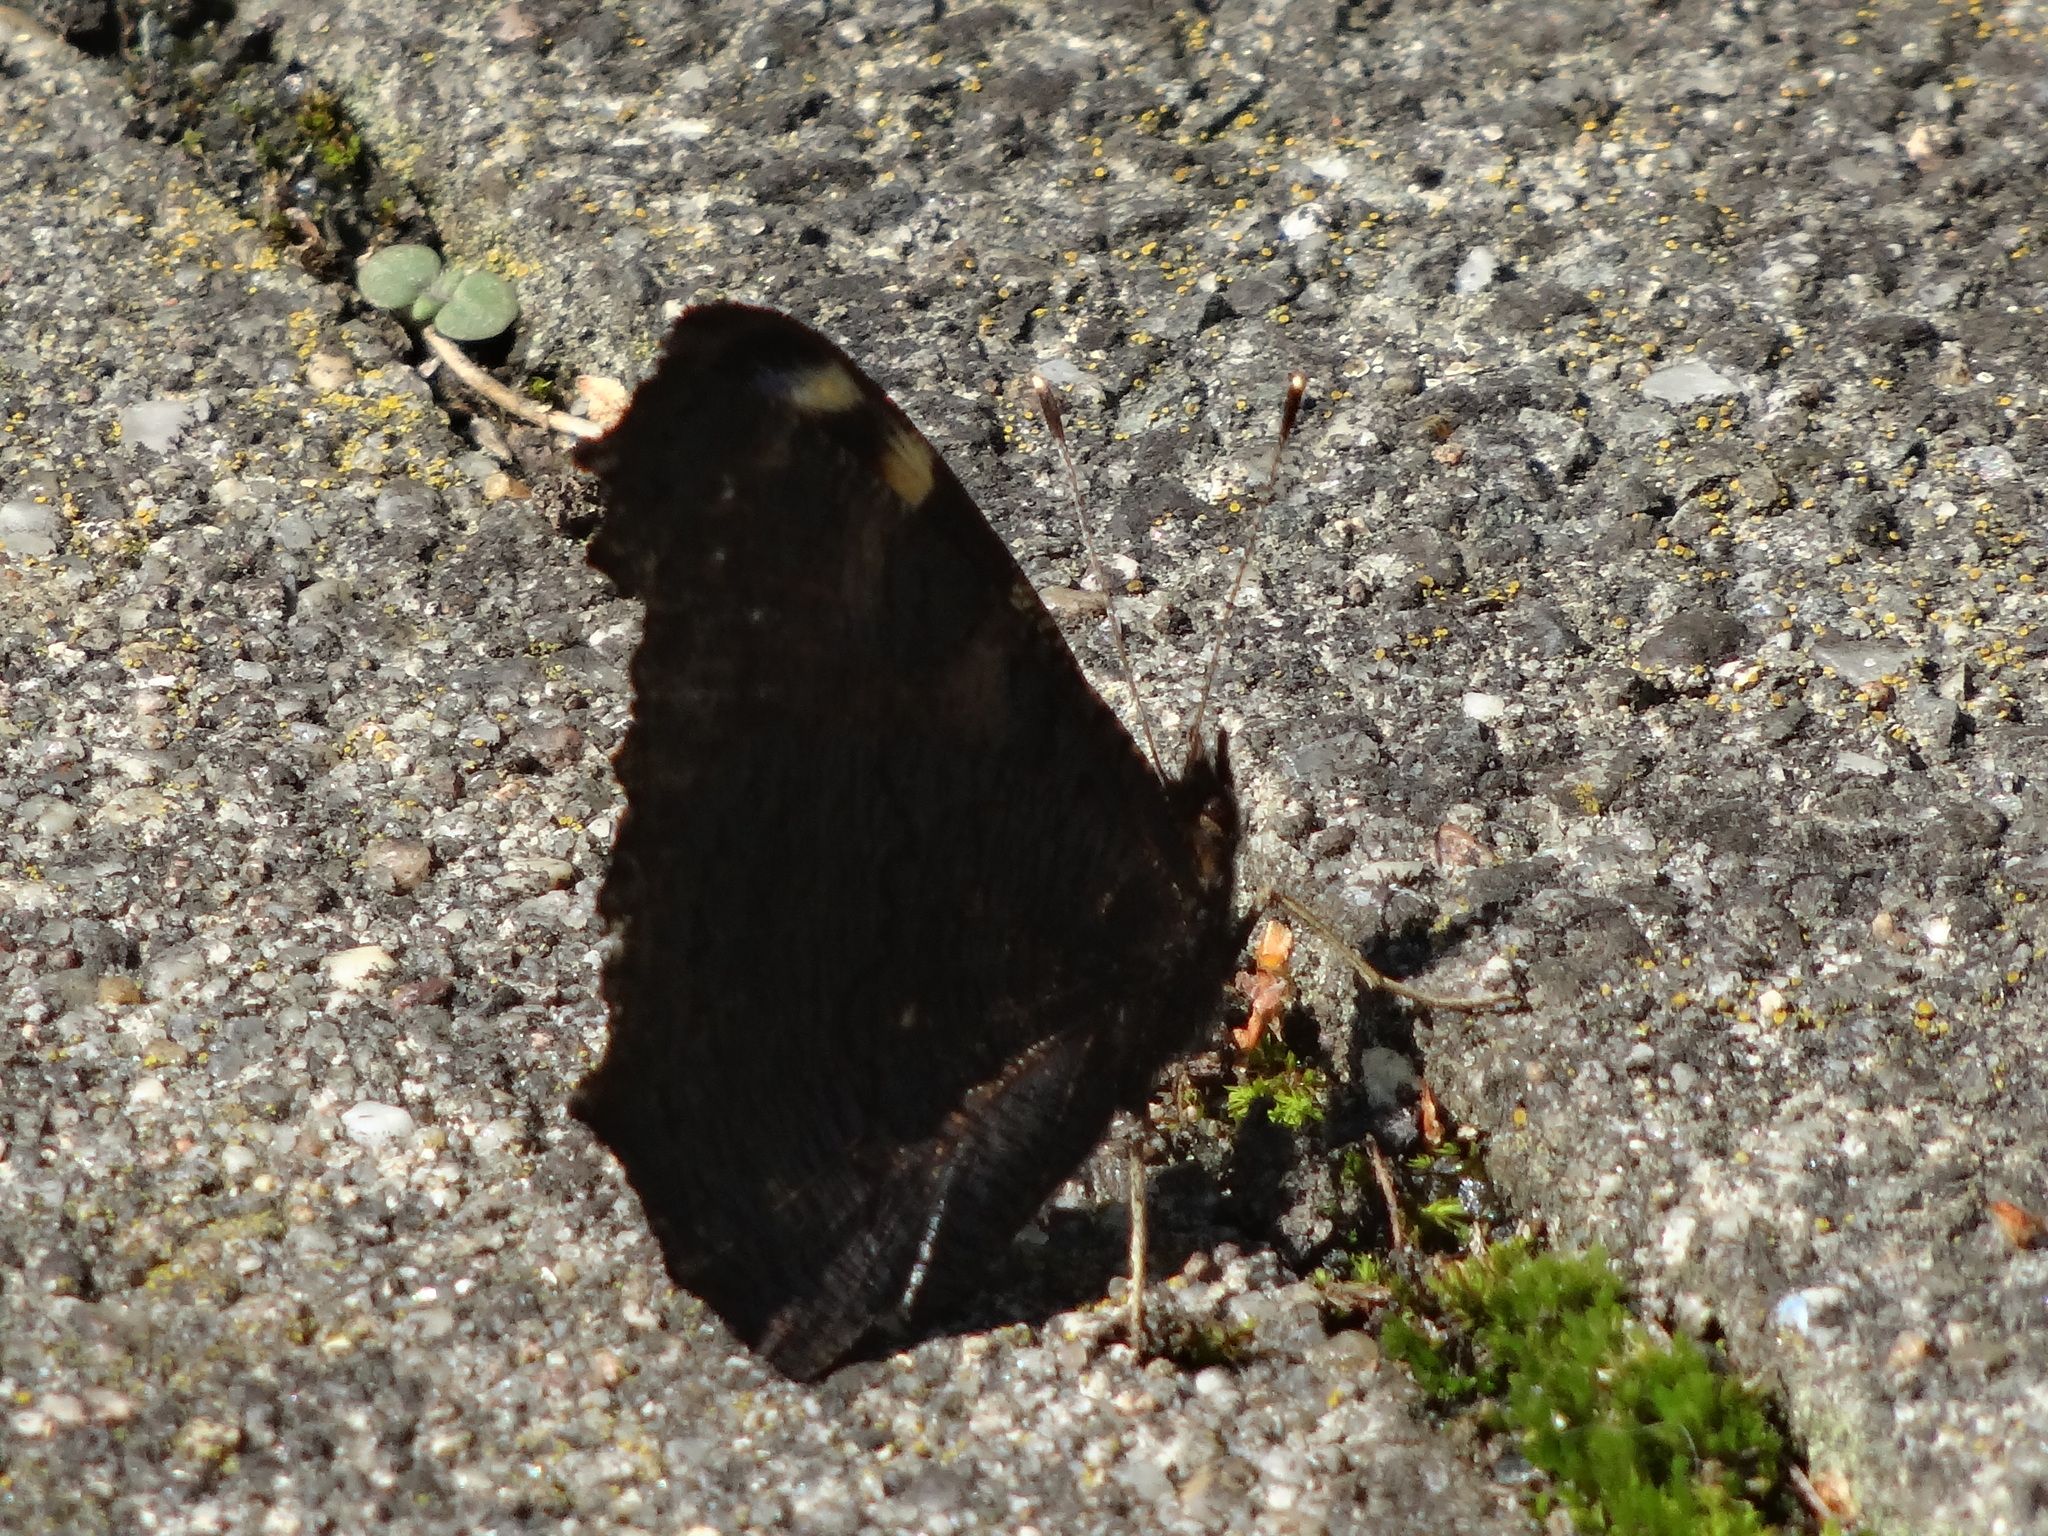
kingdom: Animalia
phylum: Arthropoda
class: Insecta
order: Lepidoptera
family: Nymphalidae
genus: Aglais
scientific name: Aglais io
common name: Peacock
